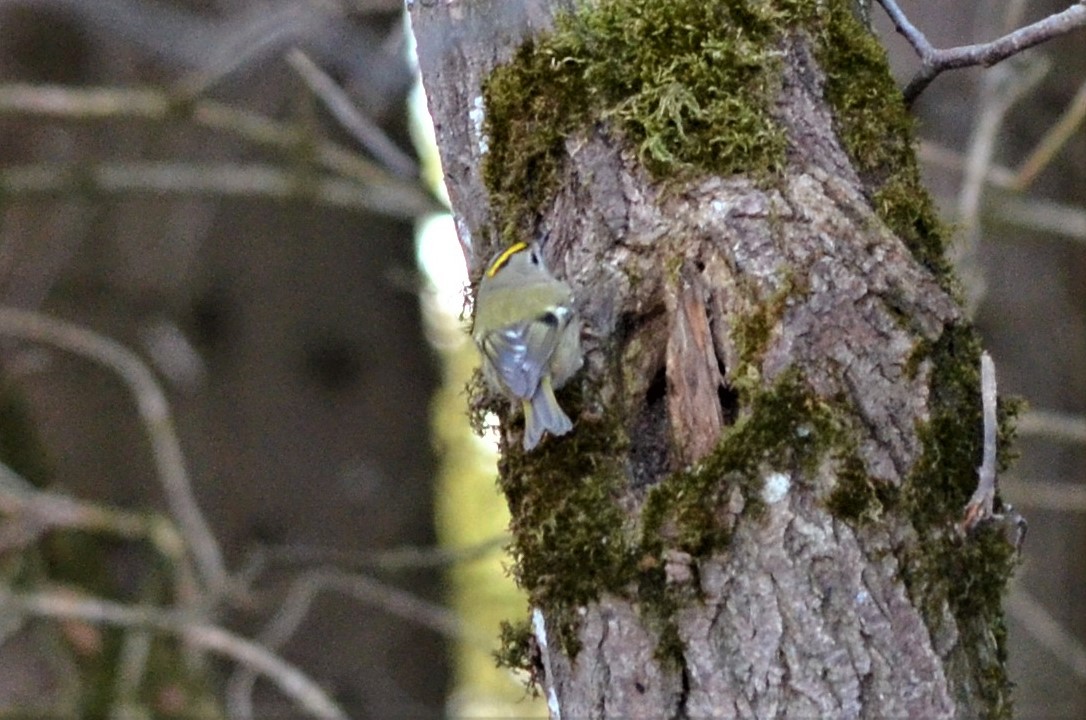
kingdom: Animalia
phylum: Chordata
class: Aves
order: Passeriformes
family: Regulidae
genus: Regulus
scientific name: Regulus regulus
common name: Goldcrest
